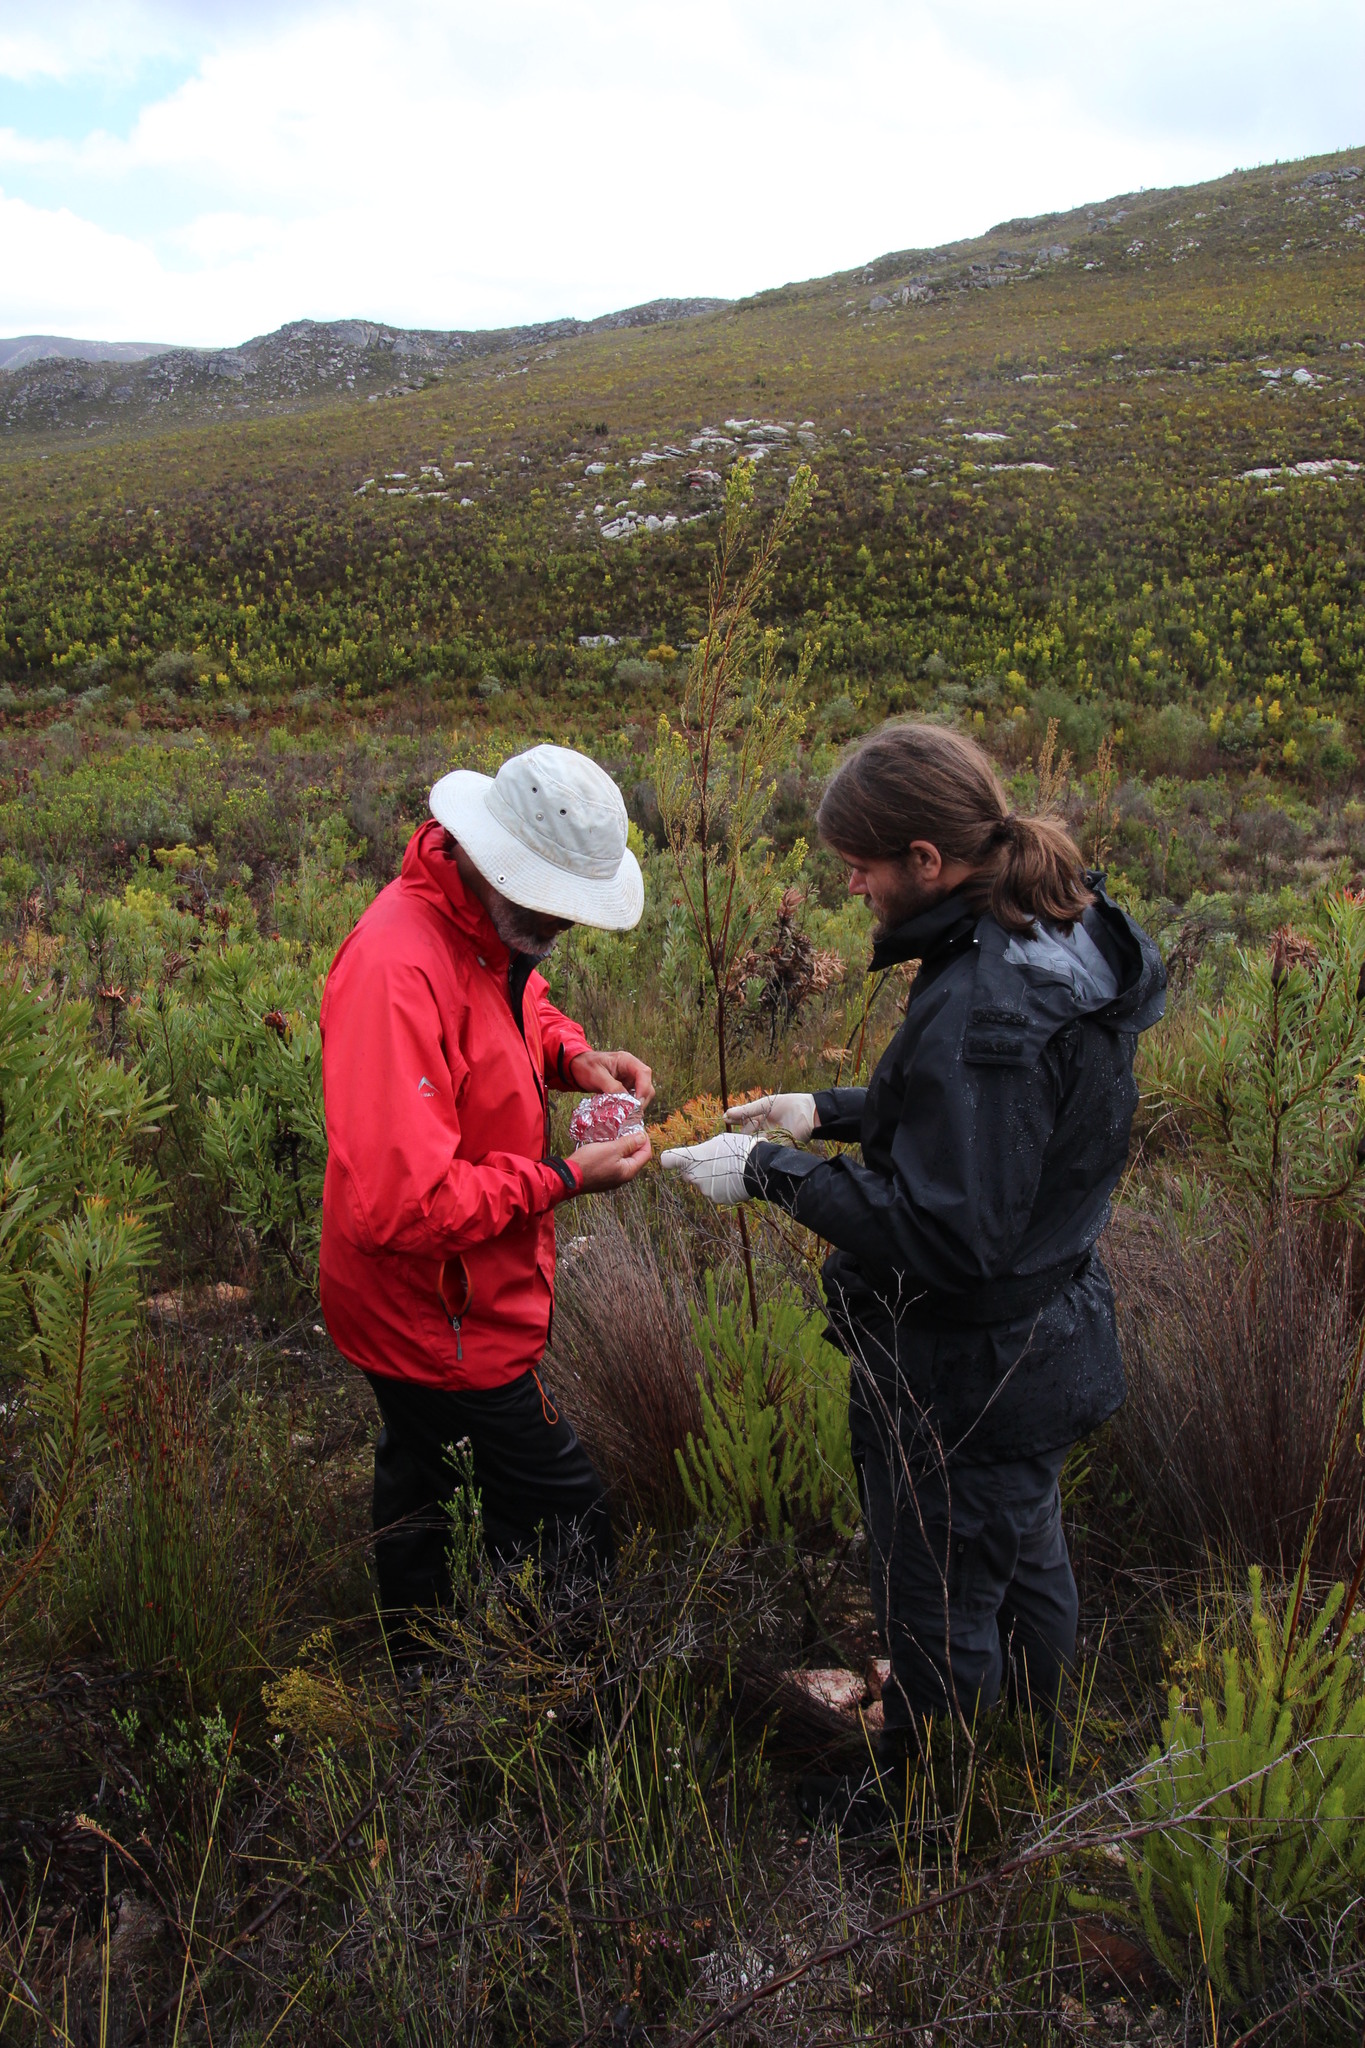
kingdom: Plantae
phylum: Tracheophyta
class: Magnoliopsida
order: Proteales
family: Proteaceae
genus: Leucadendron
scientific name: Leucadendron ericifolium
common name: Erica-leaved conebush
